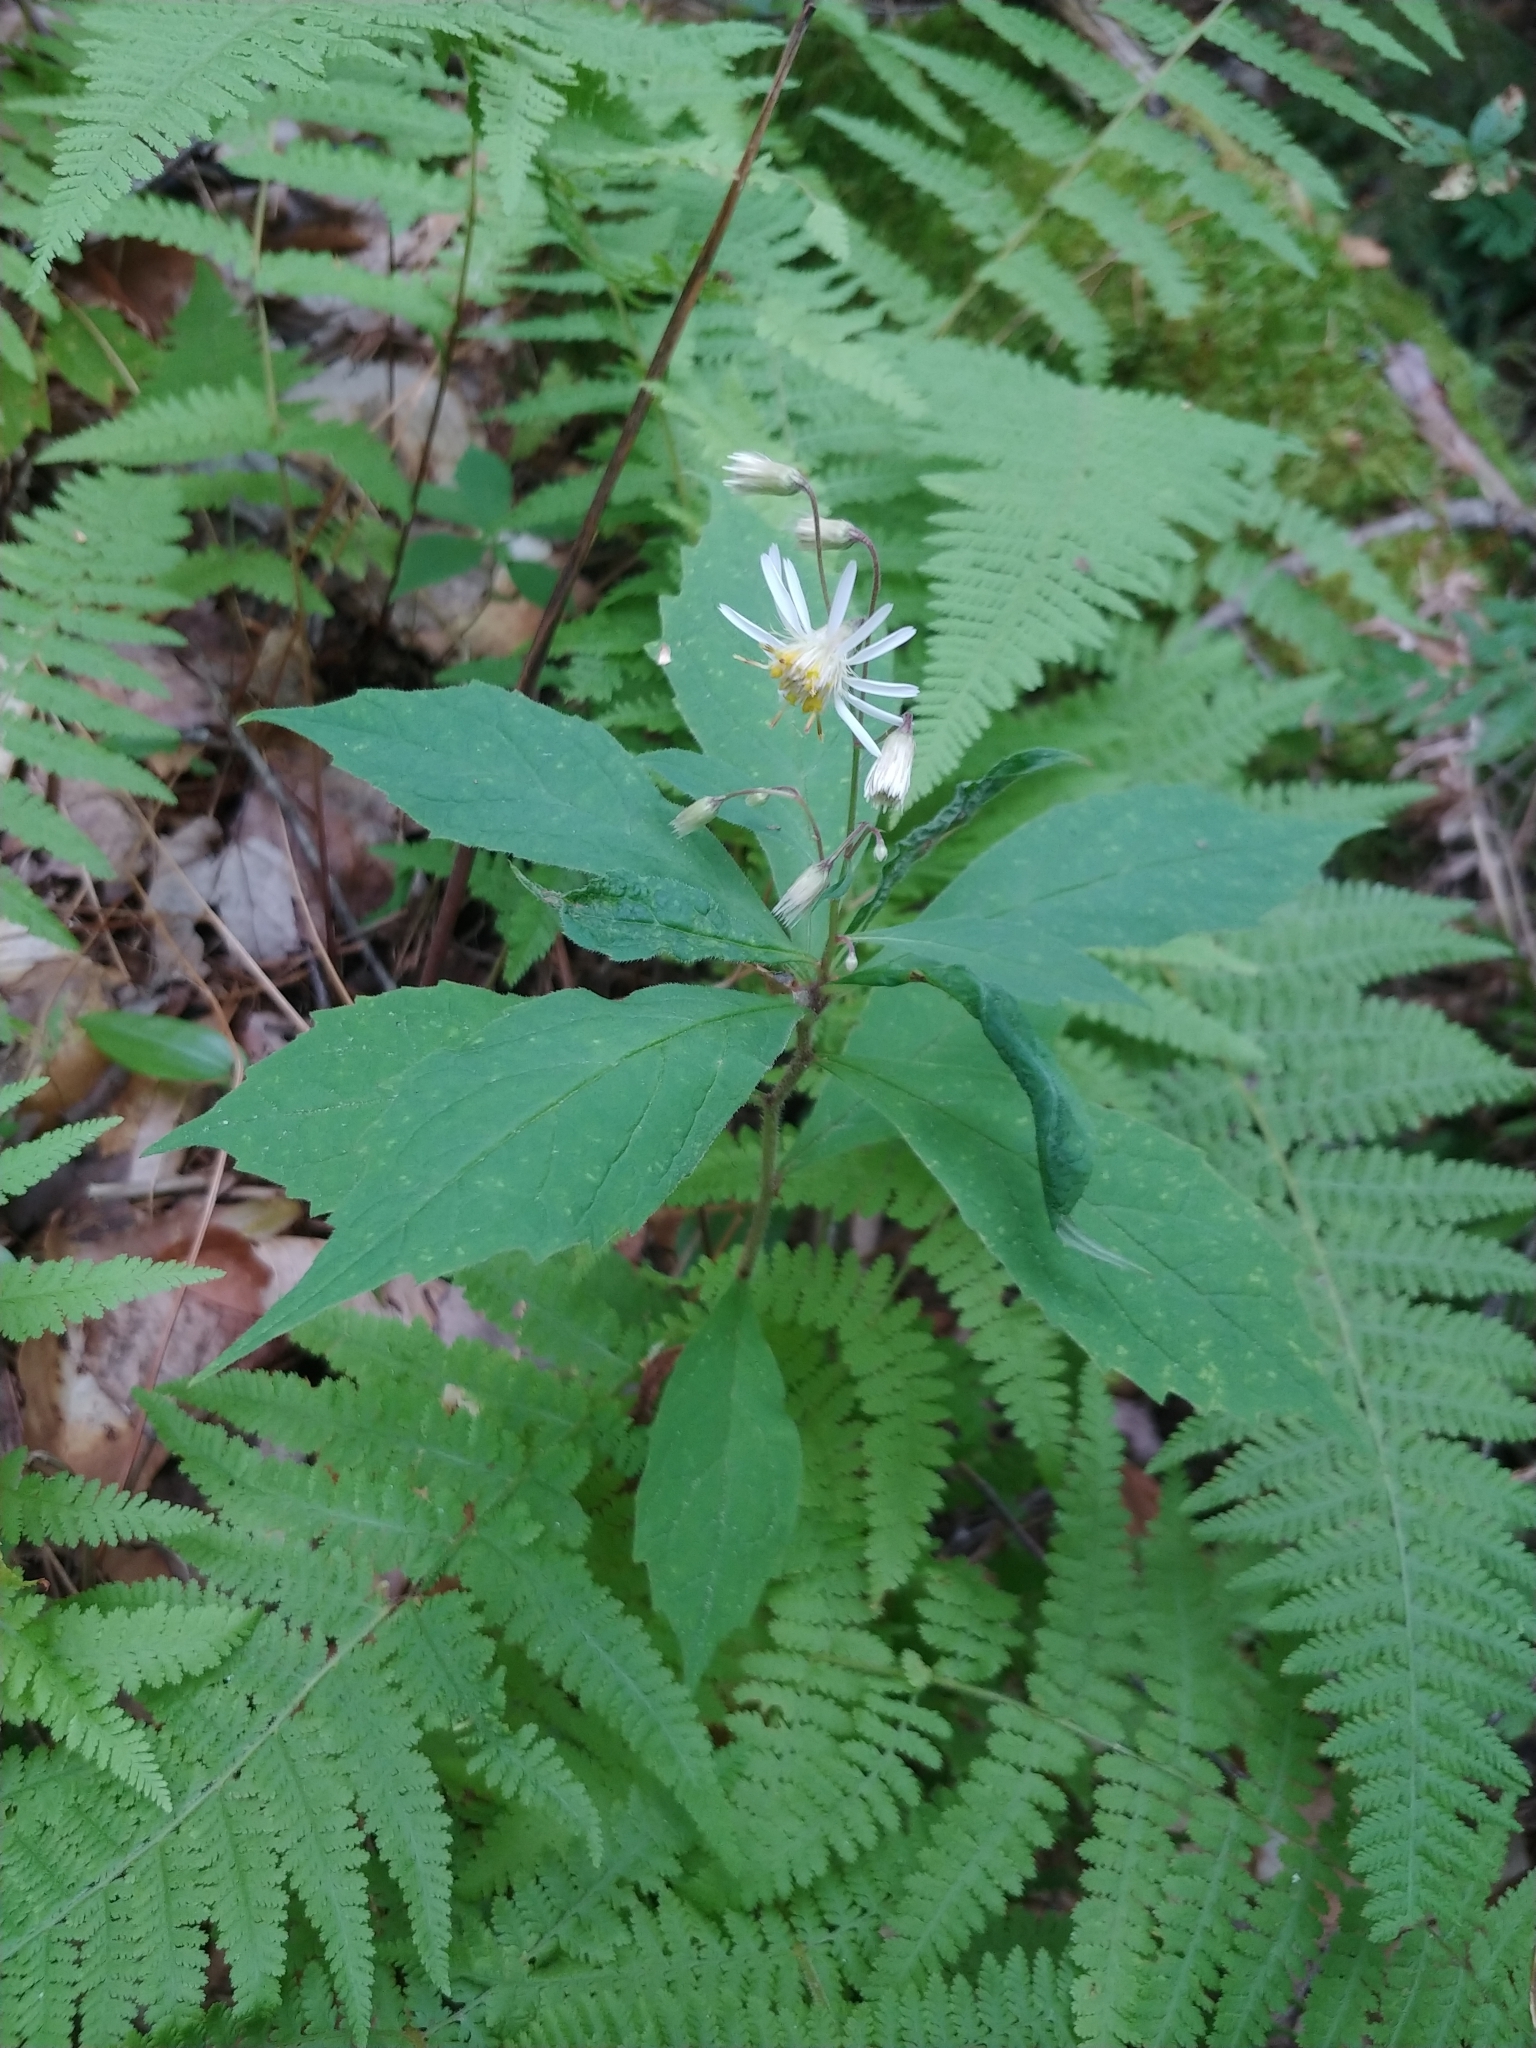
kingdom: Plantae
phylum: Tracheophyta
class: Magnoliopsida
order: Asterales
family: Asteraceae
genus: Oclemena
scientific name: Oclemena acuminata
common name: Mountain aster
